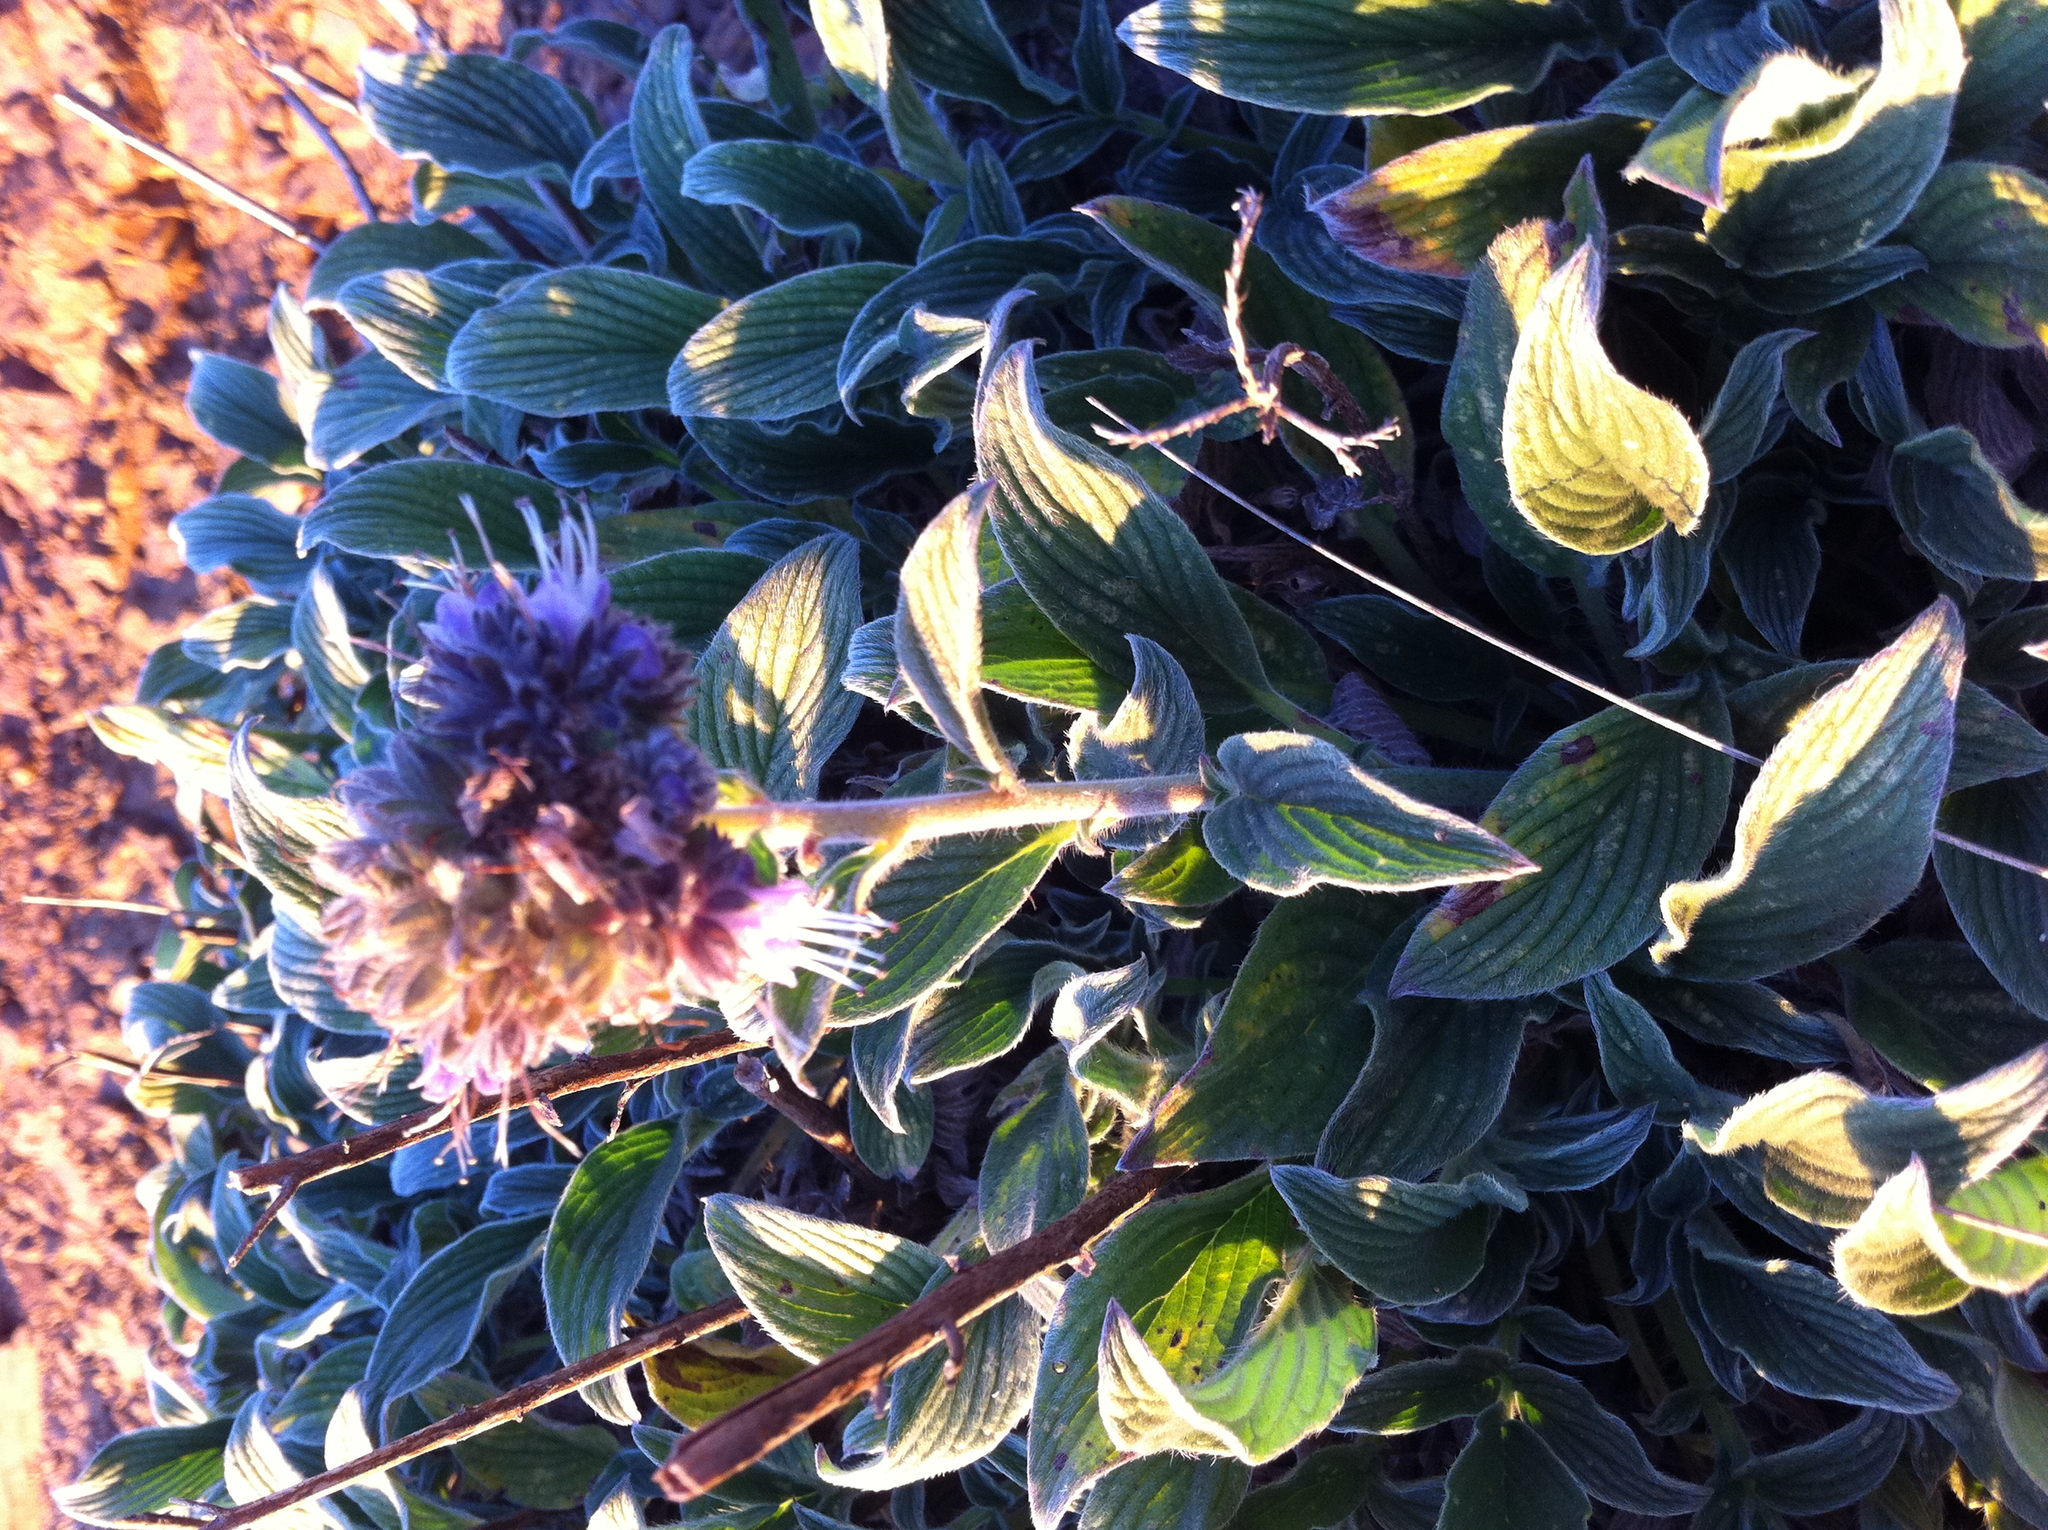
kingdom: Plantae
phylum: Tracheophyta
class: Magnoliopsida
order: Boraginales
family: Hydrophyllaceae
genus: Phacelia
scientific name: Phacelia californica
